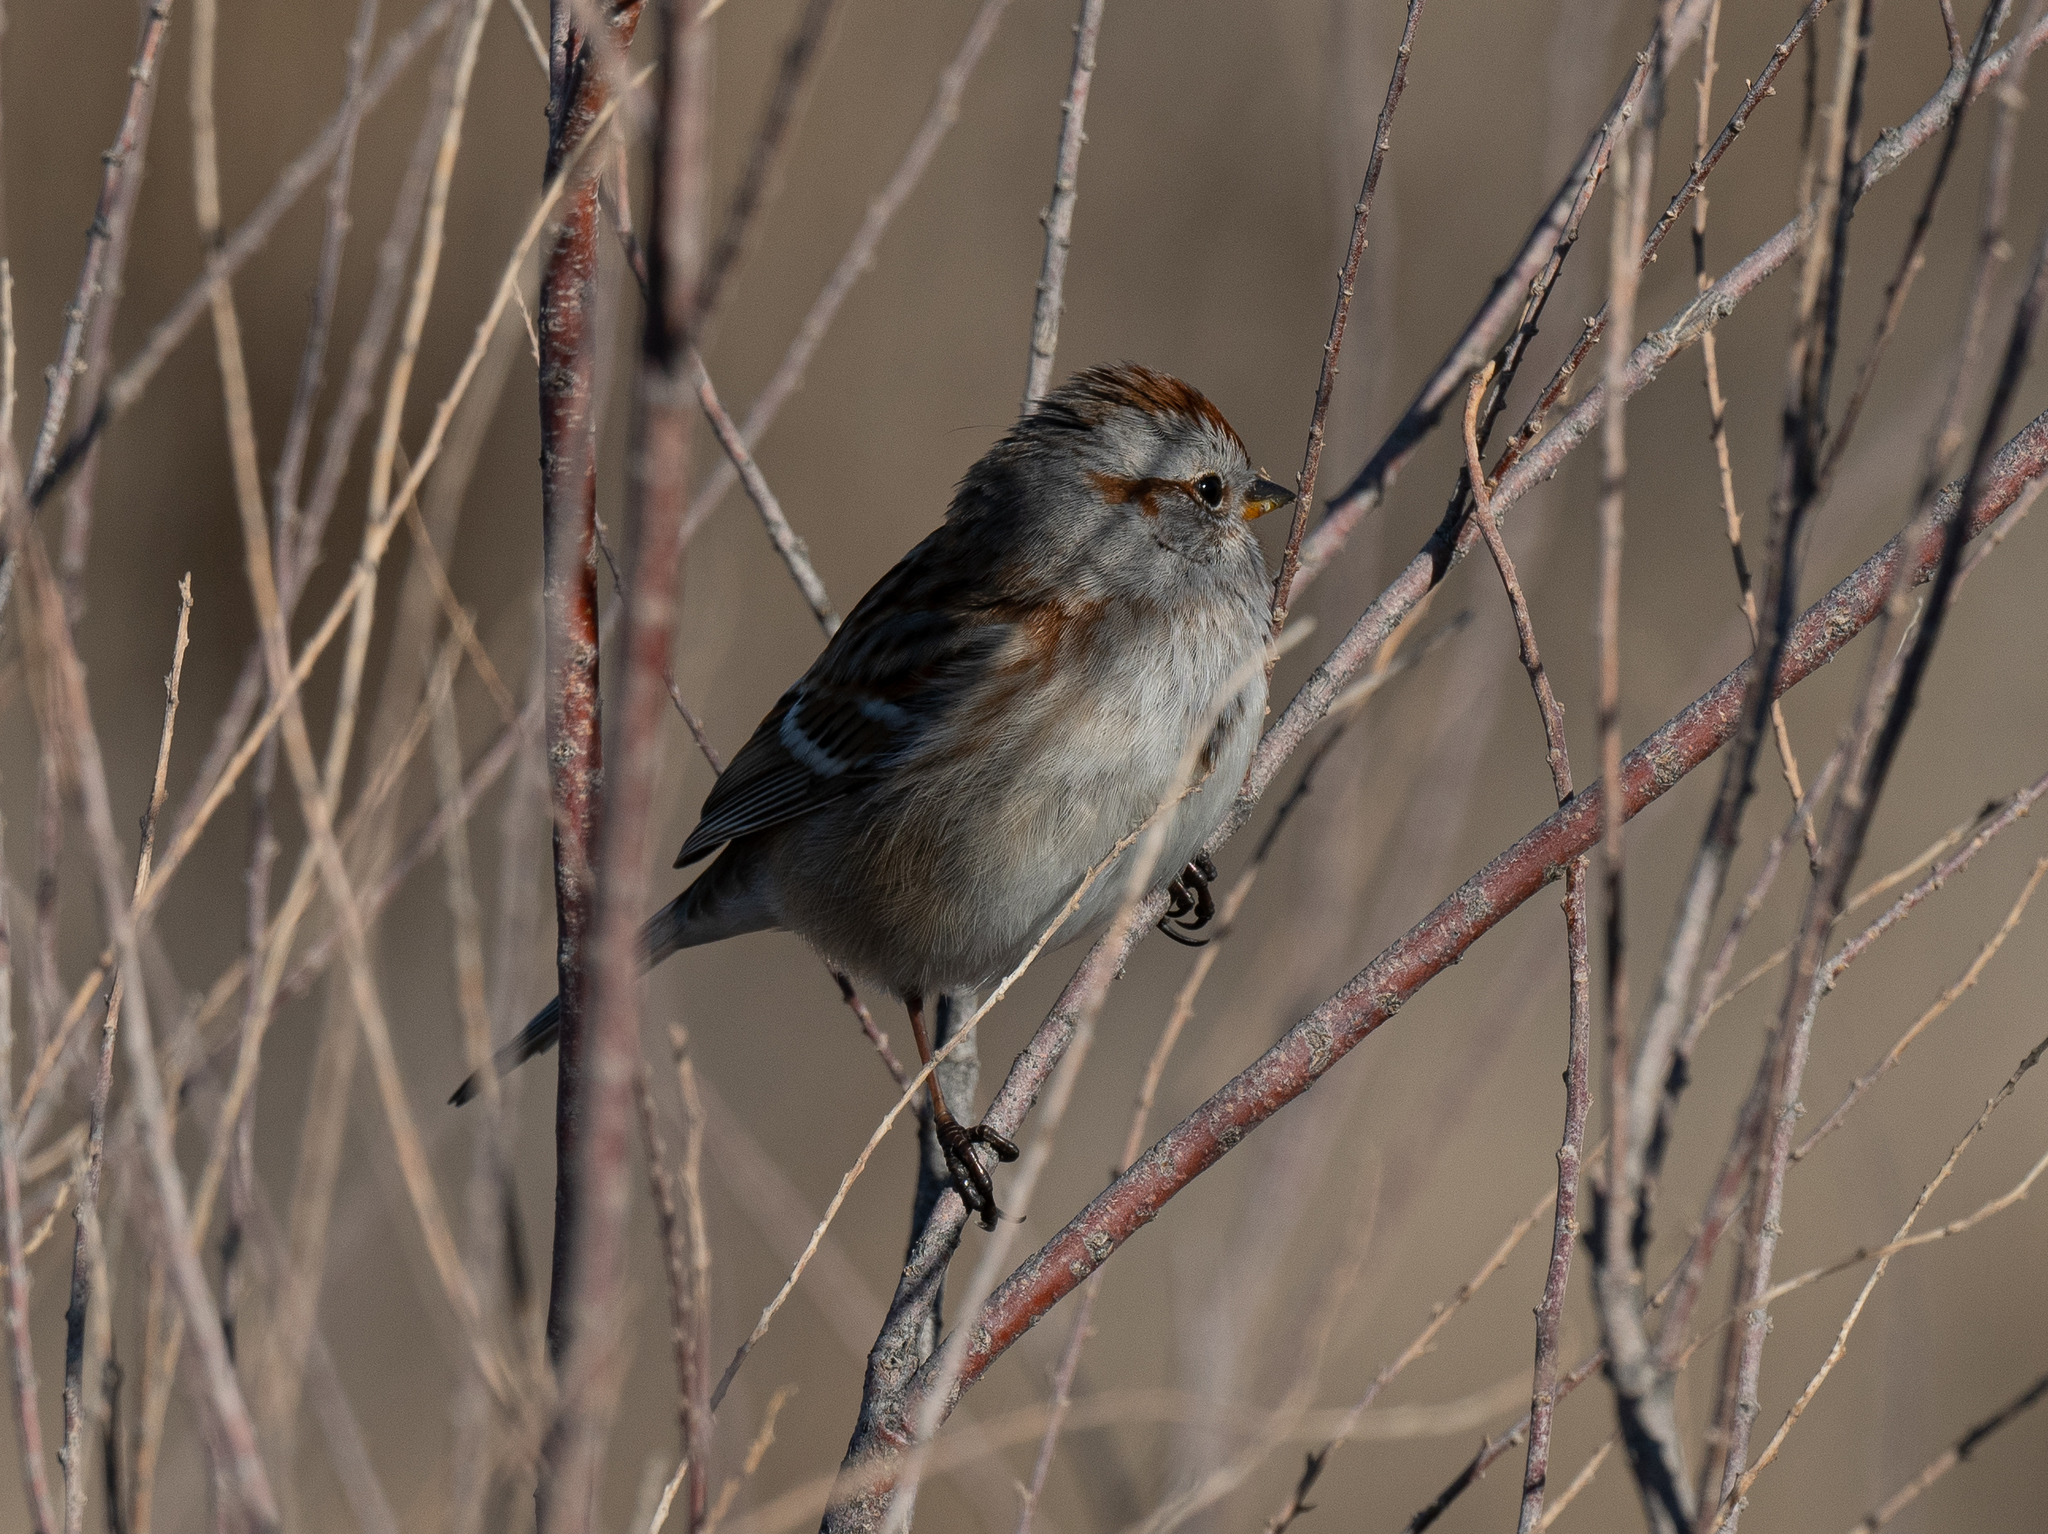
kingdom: Animalia
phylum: Chordata
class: Aves
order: Passeriformes
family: Passerellidae
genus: Spizelloides
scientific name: Spizelloides arborea
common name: American tree sparrow
